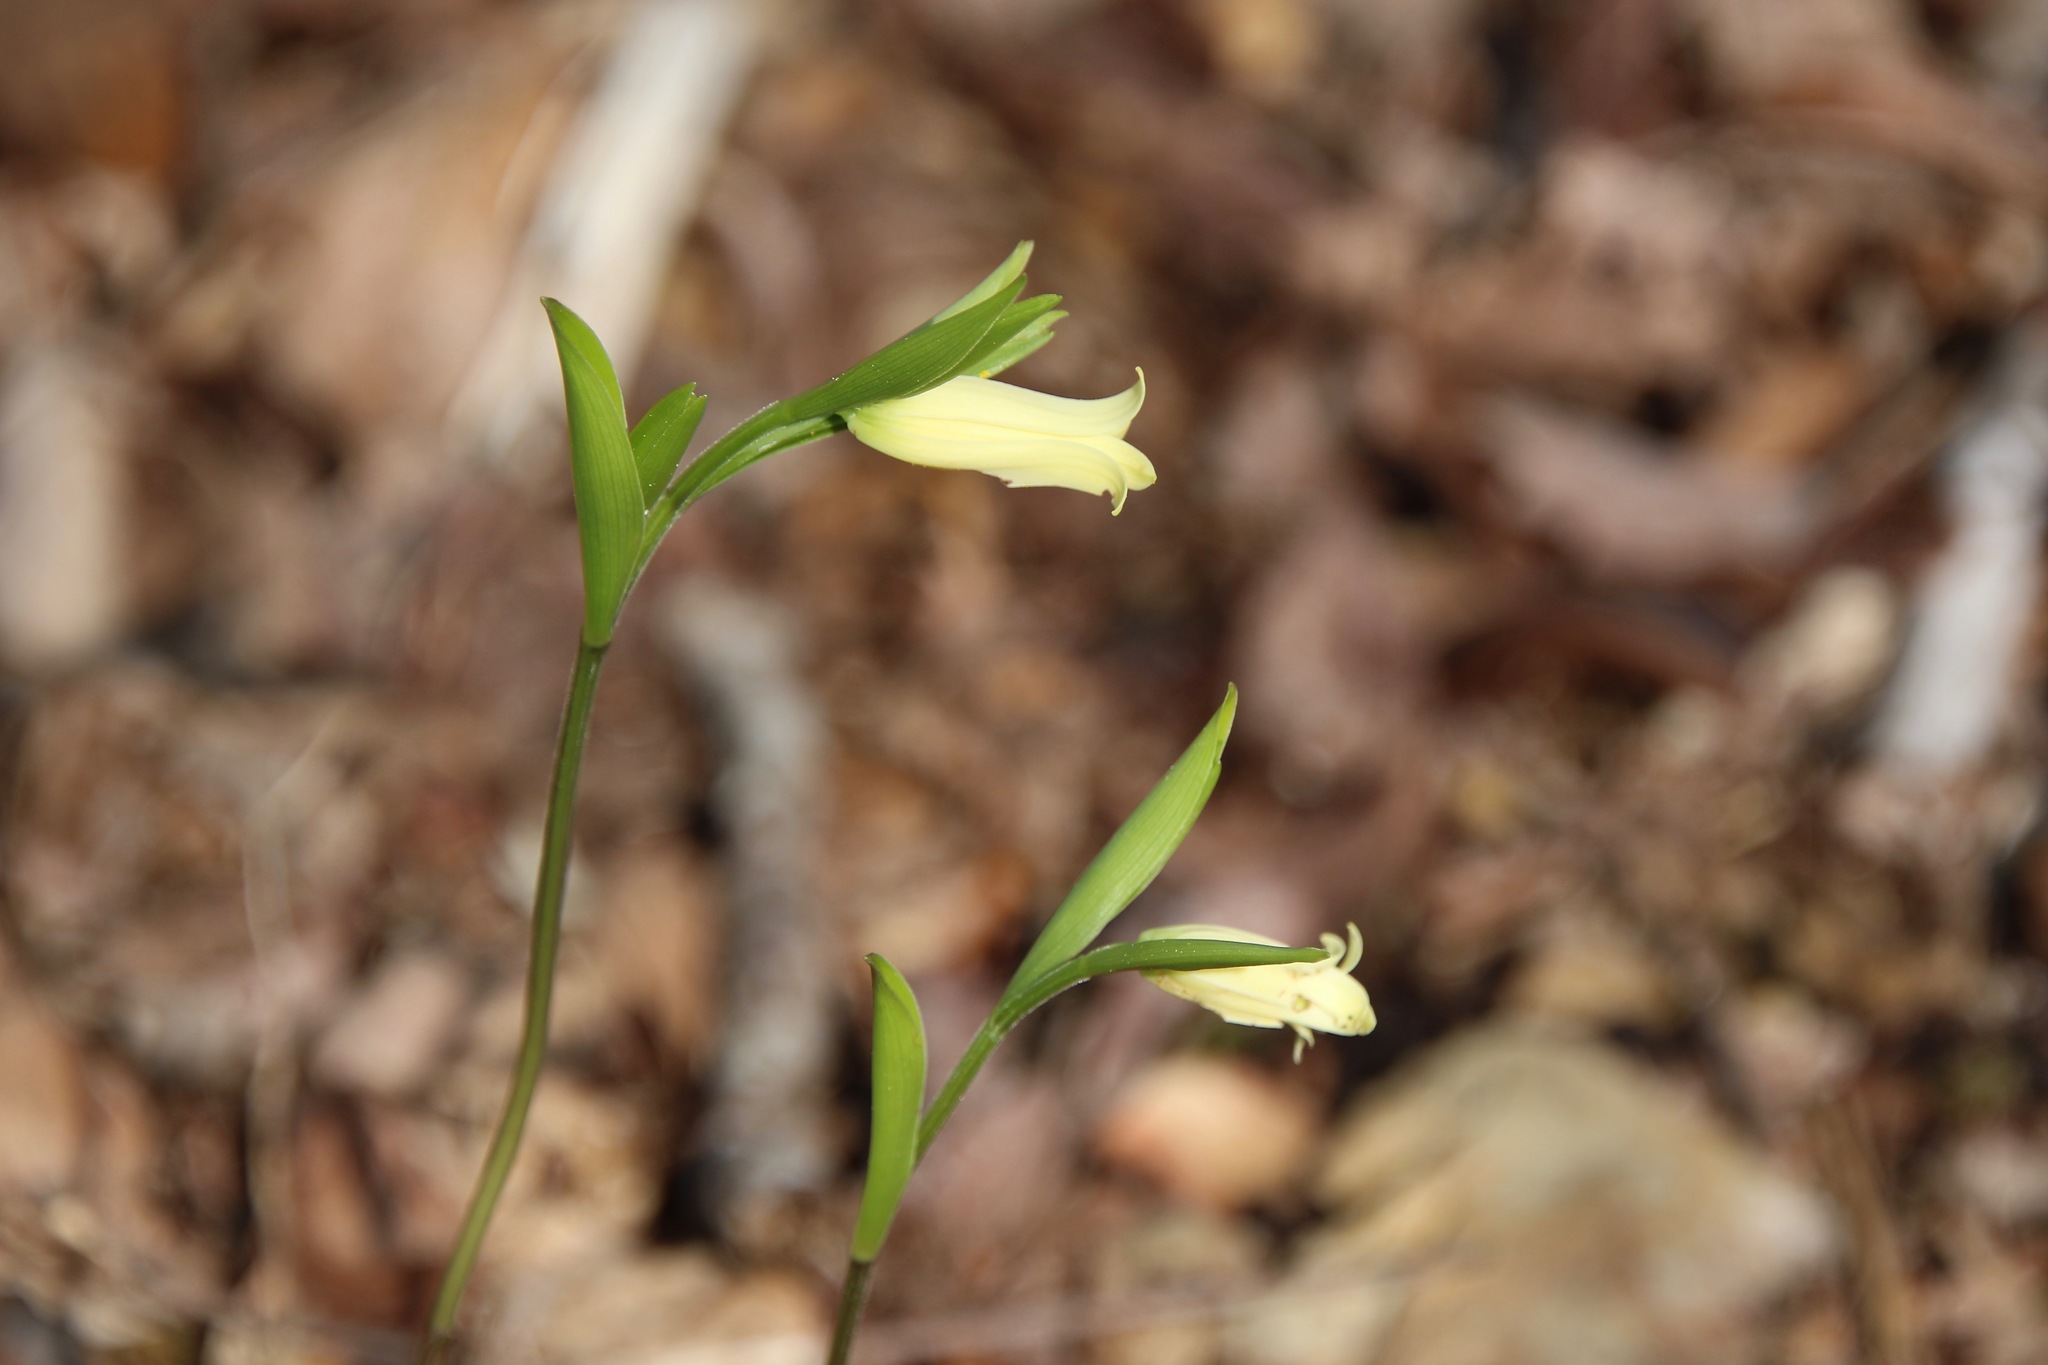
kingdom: Plantae
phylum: Tracheophyta
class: Liliopsida
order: Liliales
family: Colchicaceae
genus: Uvularia
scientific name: Uvularia puberula
